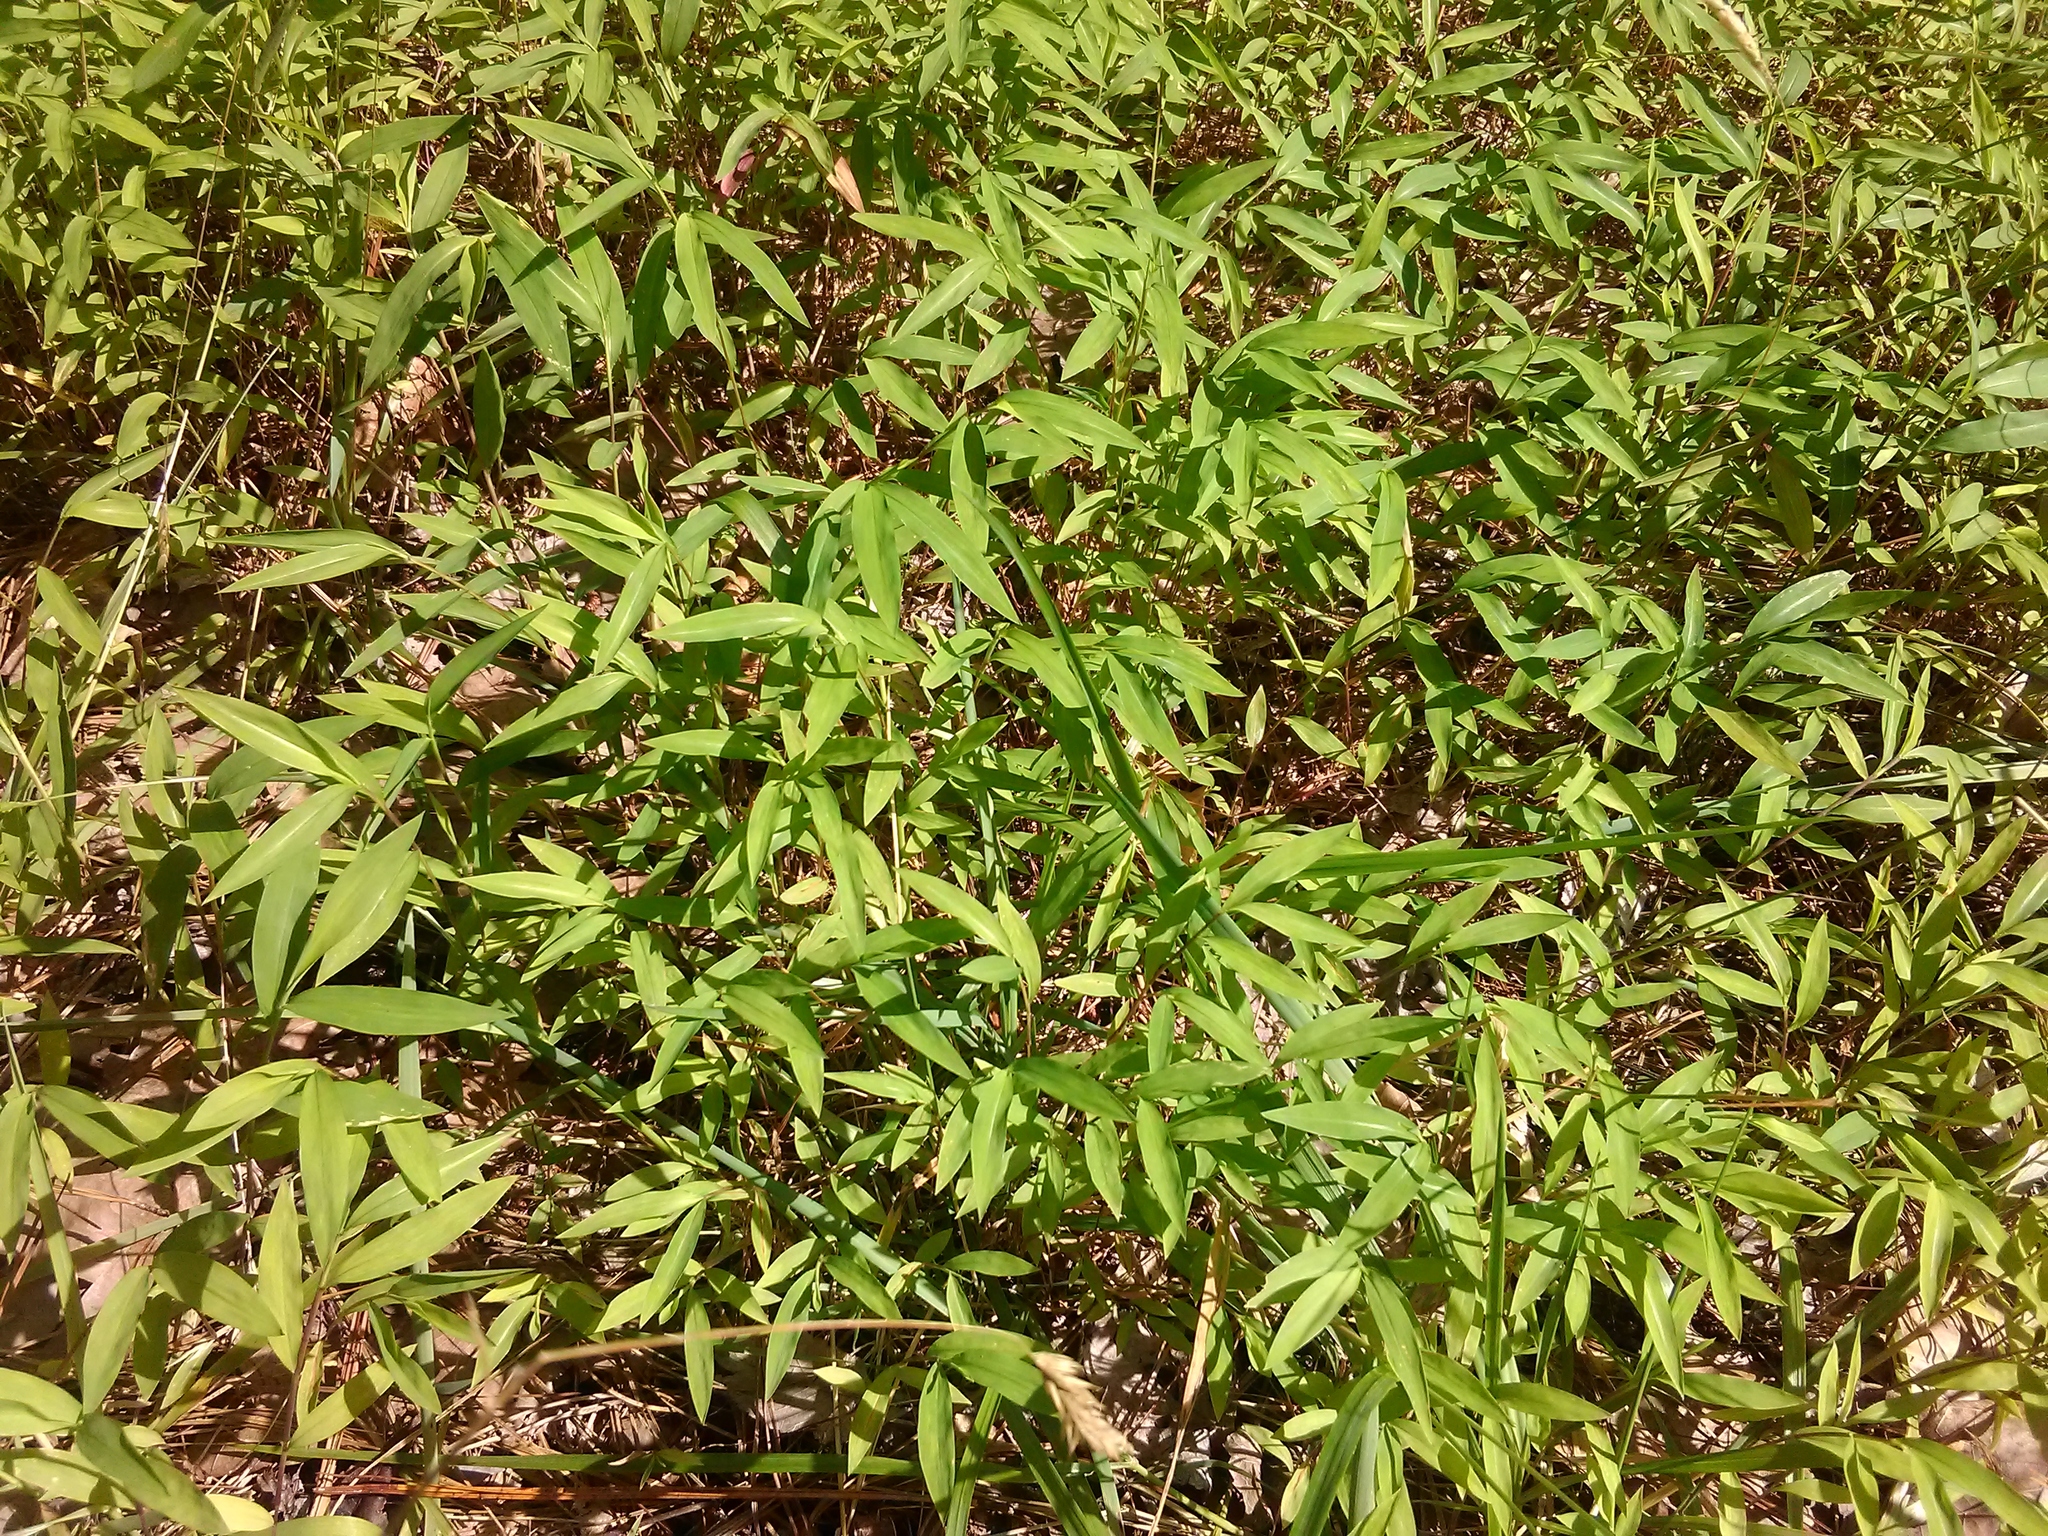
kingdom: Plantae
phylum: Tracheophyta
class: Liliopsida
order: Poales
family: Poaceae
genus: Microstegium
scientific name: Microstegium vimineum
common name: Japanese stiltgrass
